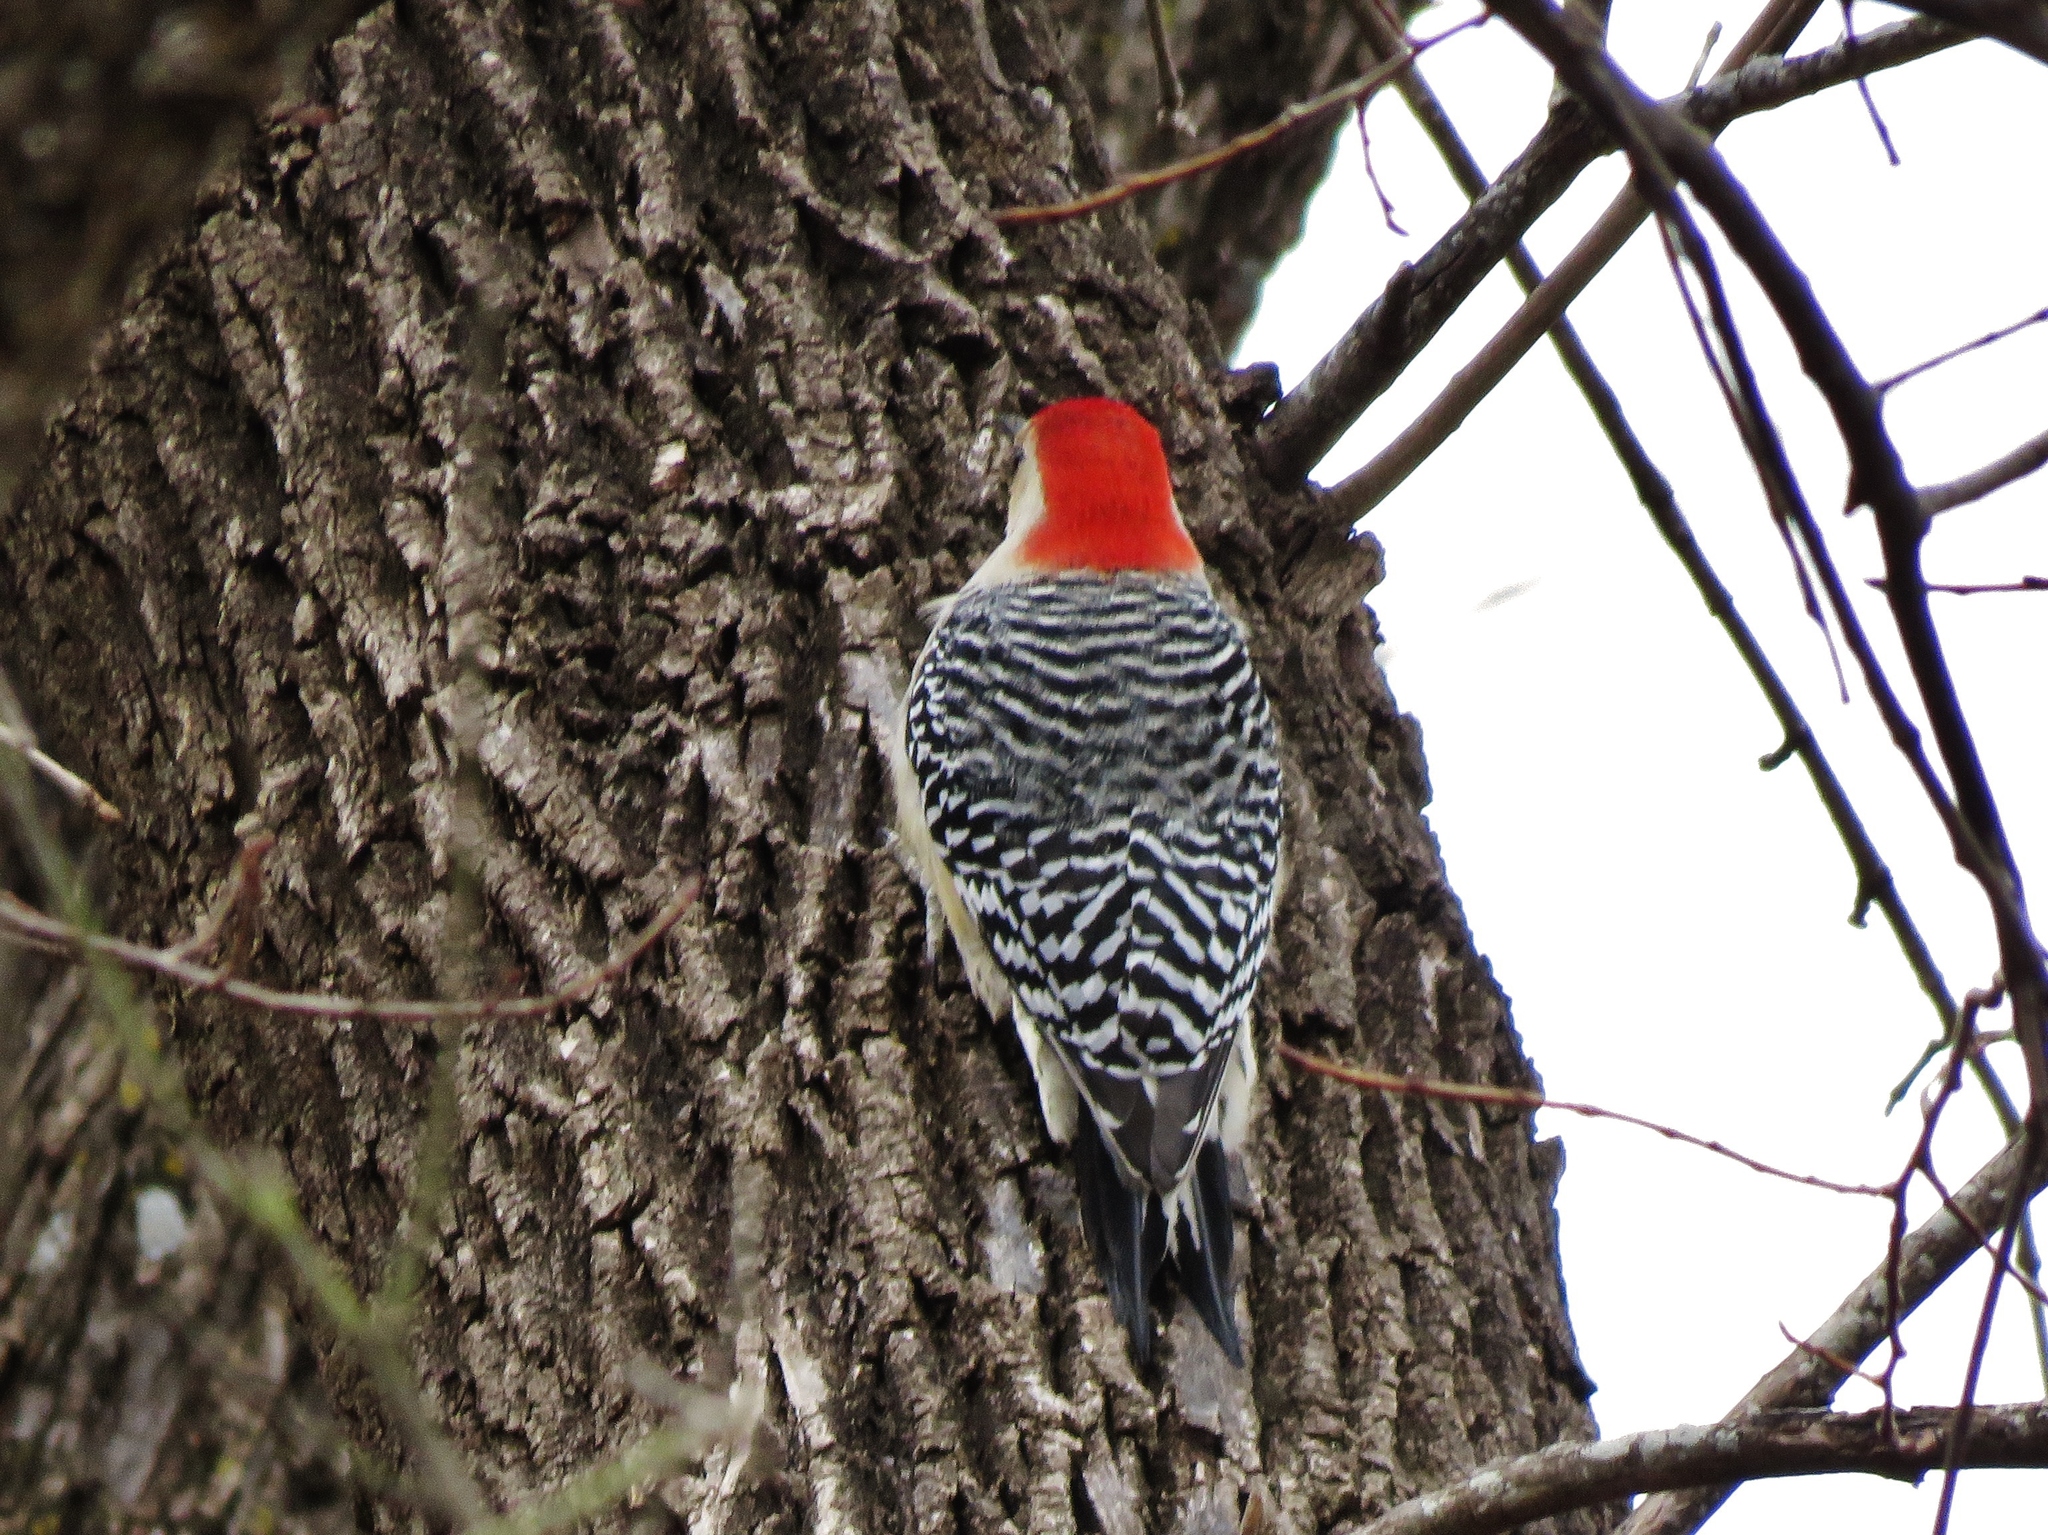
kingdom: Animalia
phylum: Chordata
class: Aves
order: Piciformes
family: Picidae
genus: Melanerpes
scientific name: Melanerpes carolinus
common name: Red-bellied woodpecker
